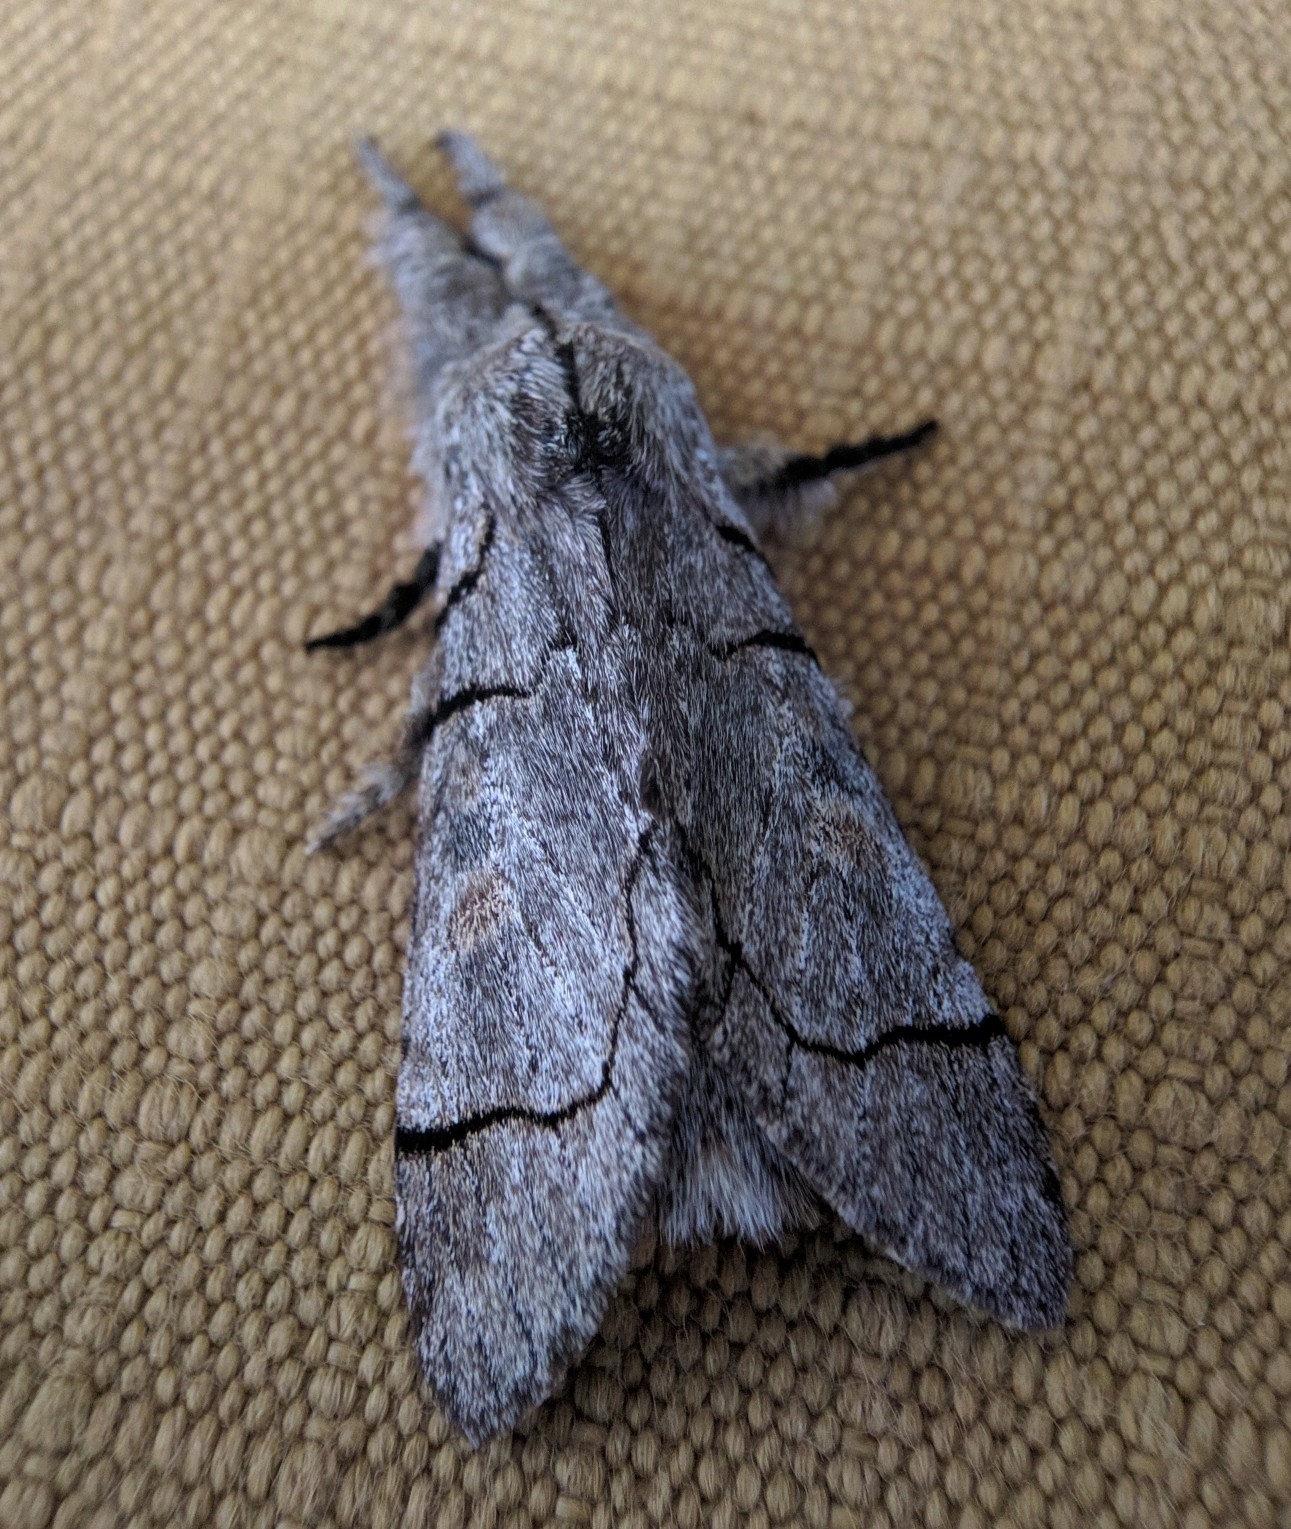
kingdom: Animalia
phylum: Arthropoda
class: Insecta
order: Lepidoptera
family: Notodontidae
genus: Teleclita
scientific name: Teleclita centristicta
